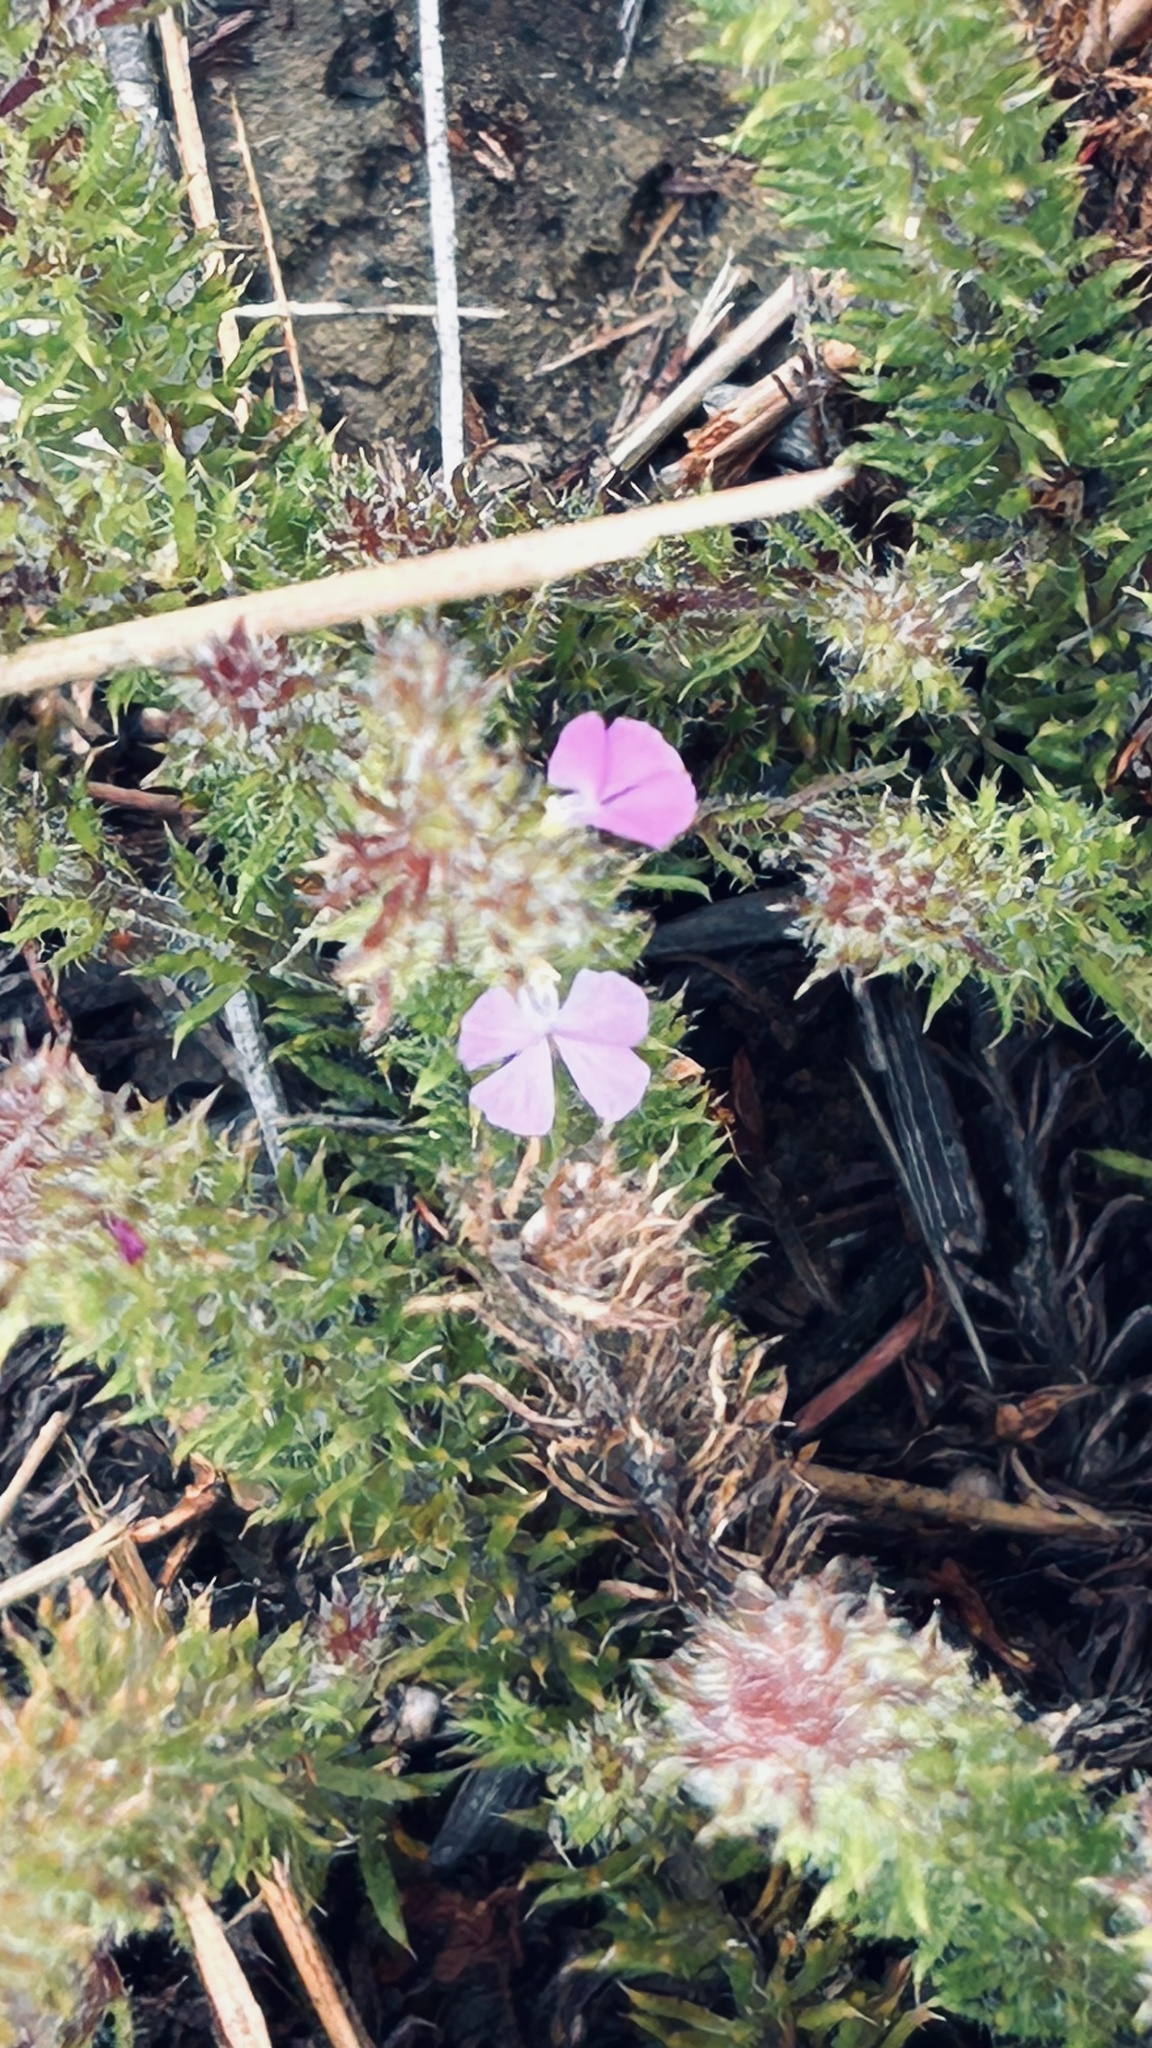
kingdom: Plantae
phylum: Tracheophyta
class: Magnoliopsida
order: Fabales
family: Polygalaceae
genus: Muraltia
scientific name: Muraltia ciliaris
